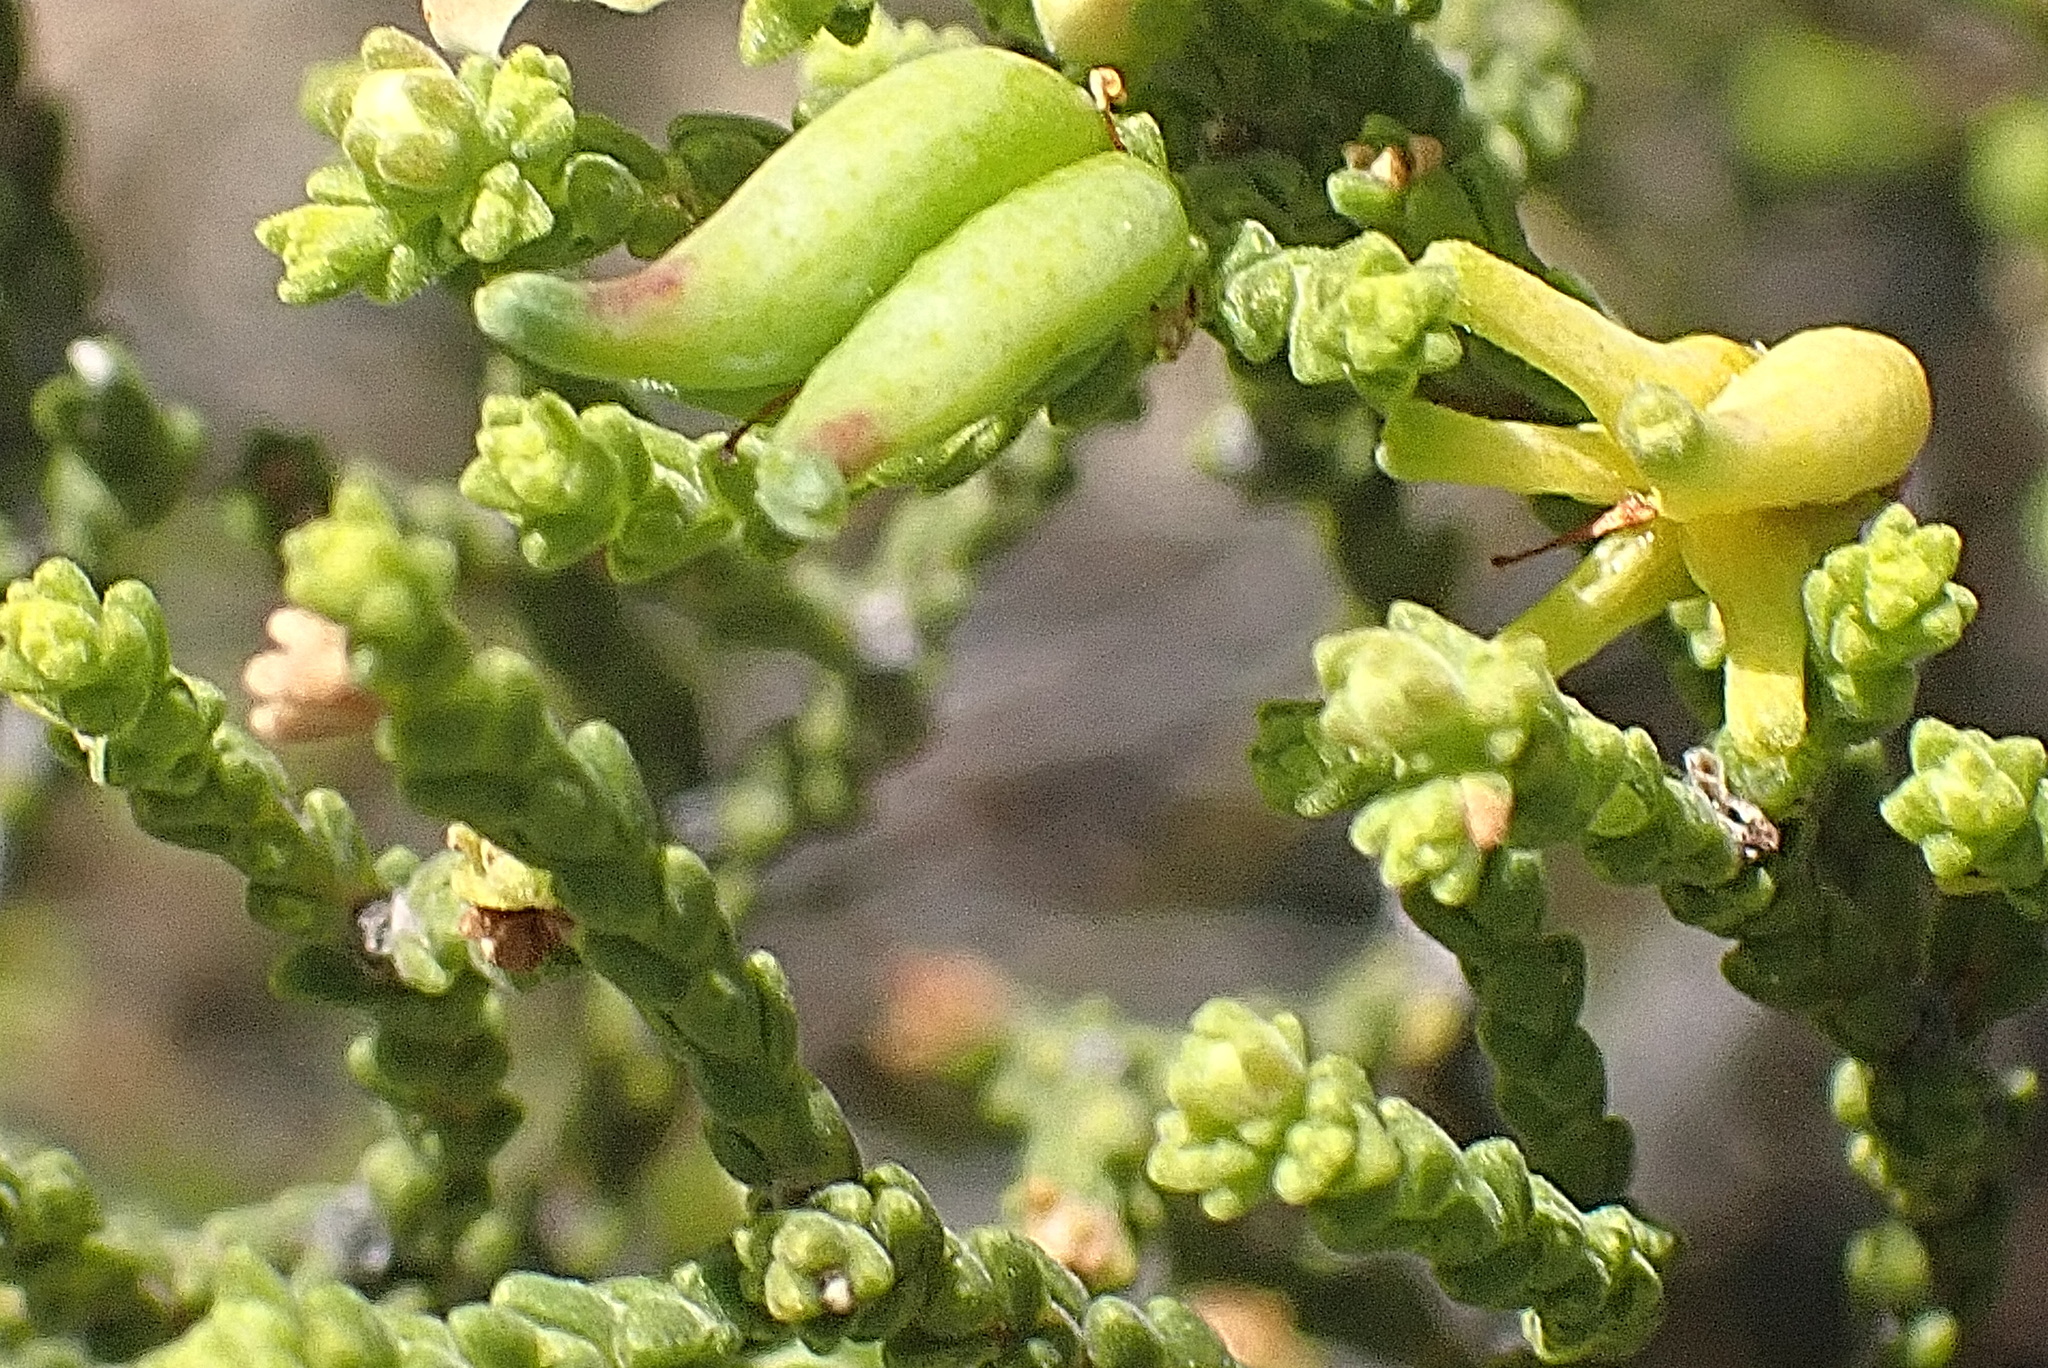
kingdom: Plantae
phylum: Tracheophyta
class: Magnoliopsida
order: Sapindales
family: Rutaceae
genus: Diosma
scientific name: Diosma passerinoides
